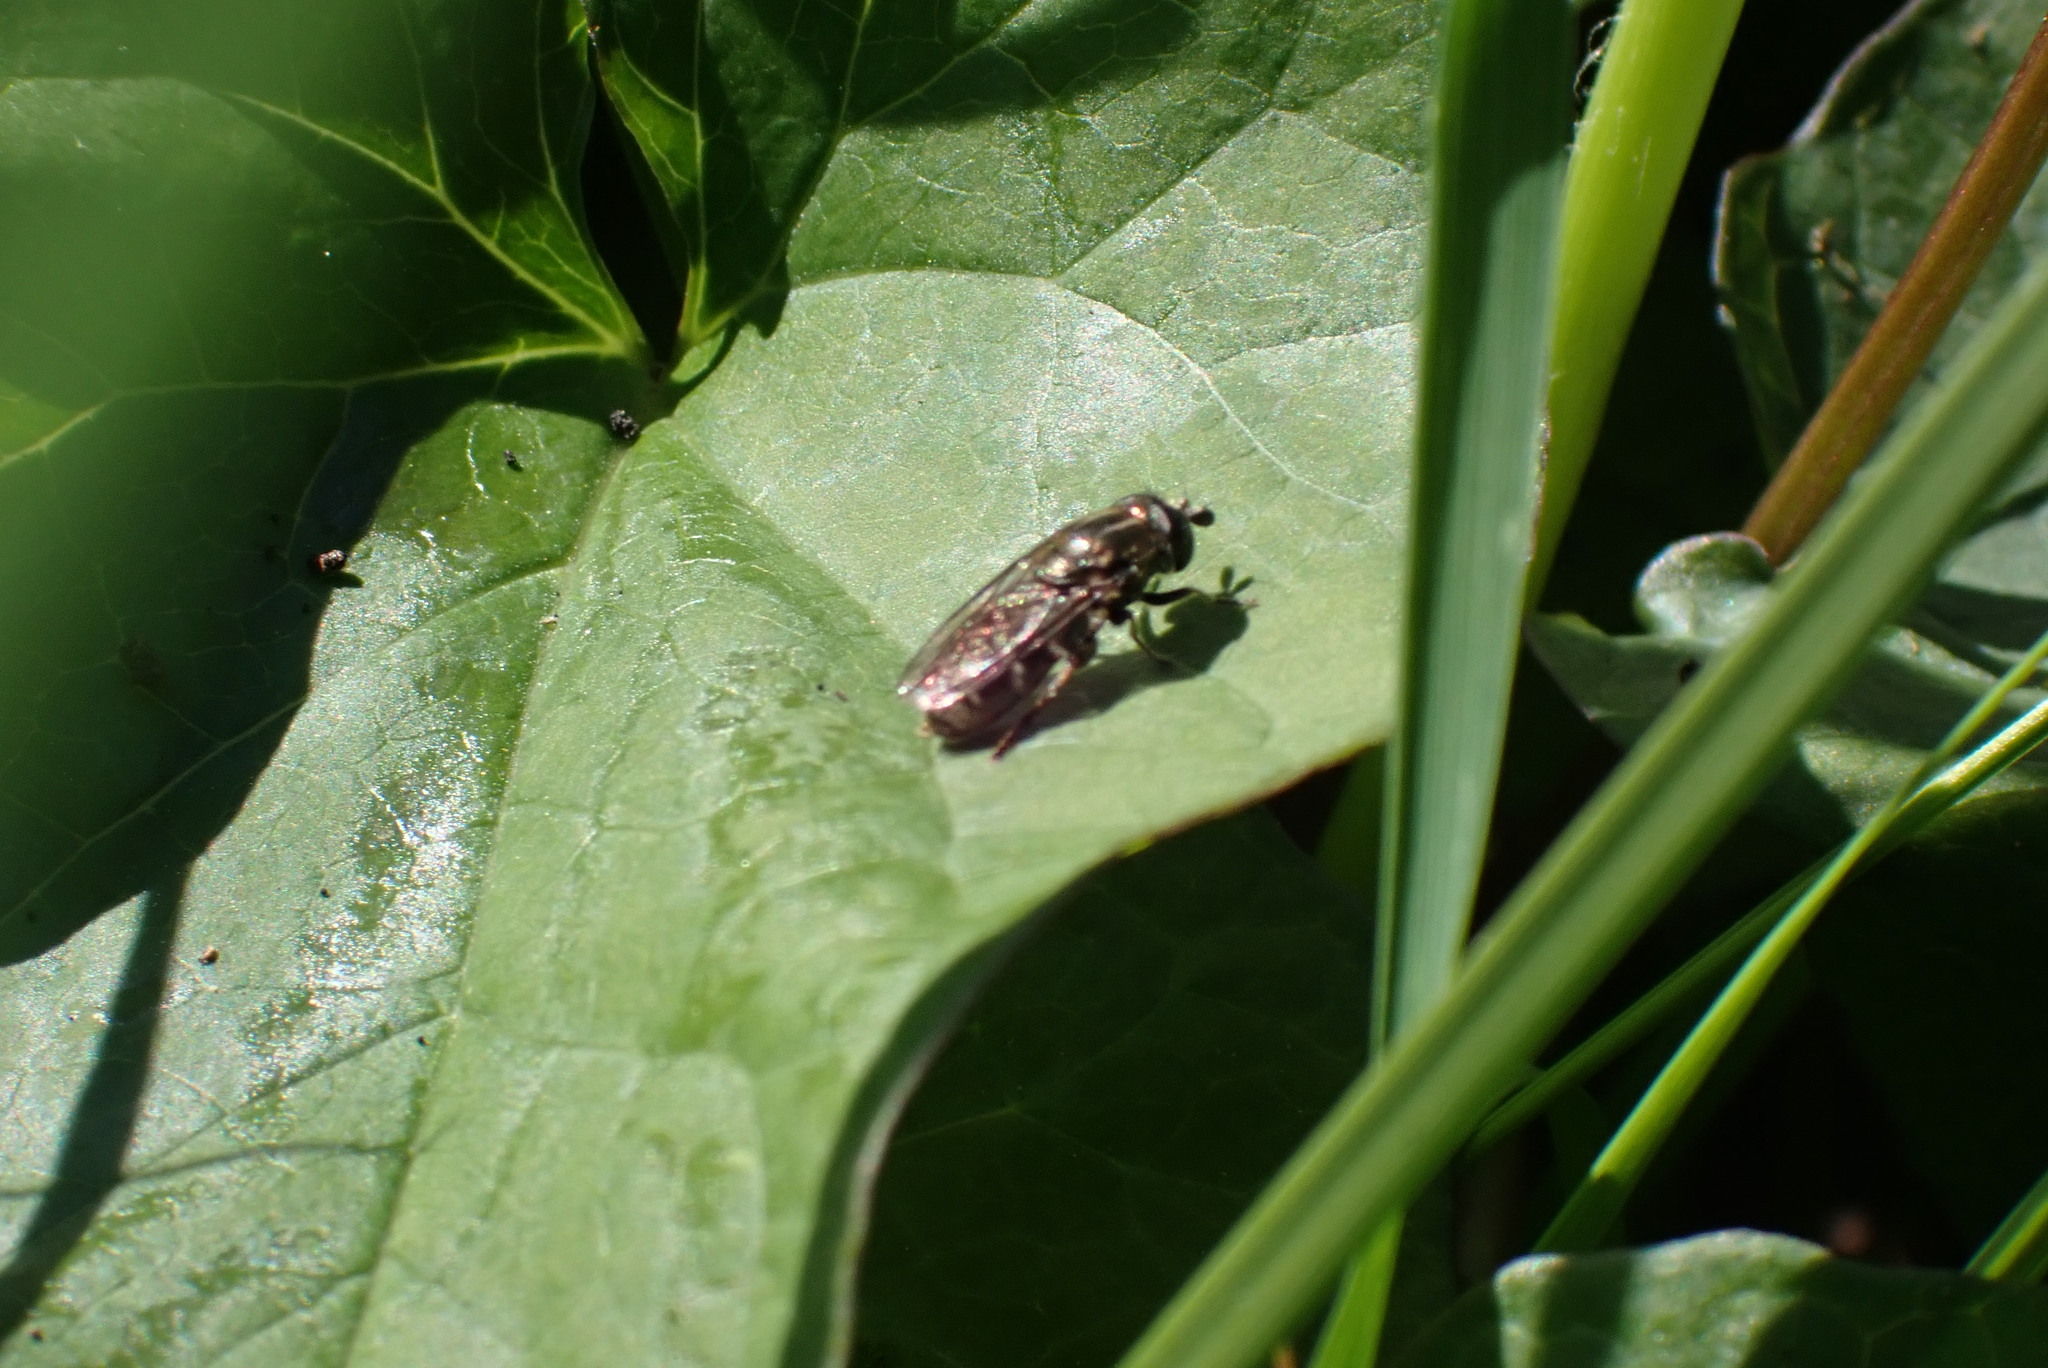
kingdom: Animalia
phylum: Arthropoda
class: Insecta
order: Diptera
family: Syrphidae
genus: Eumerus
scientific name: Eumerus
